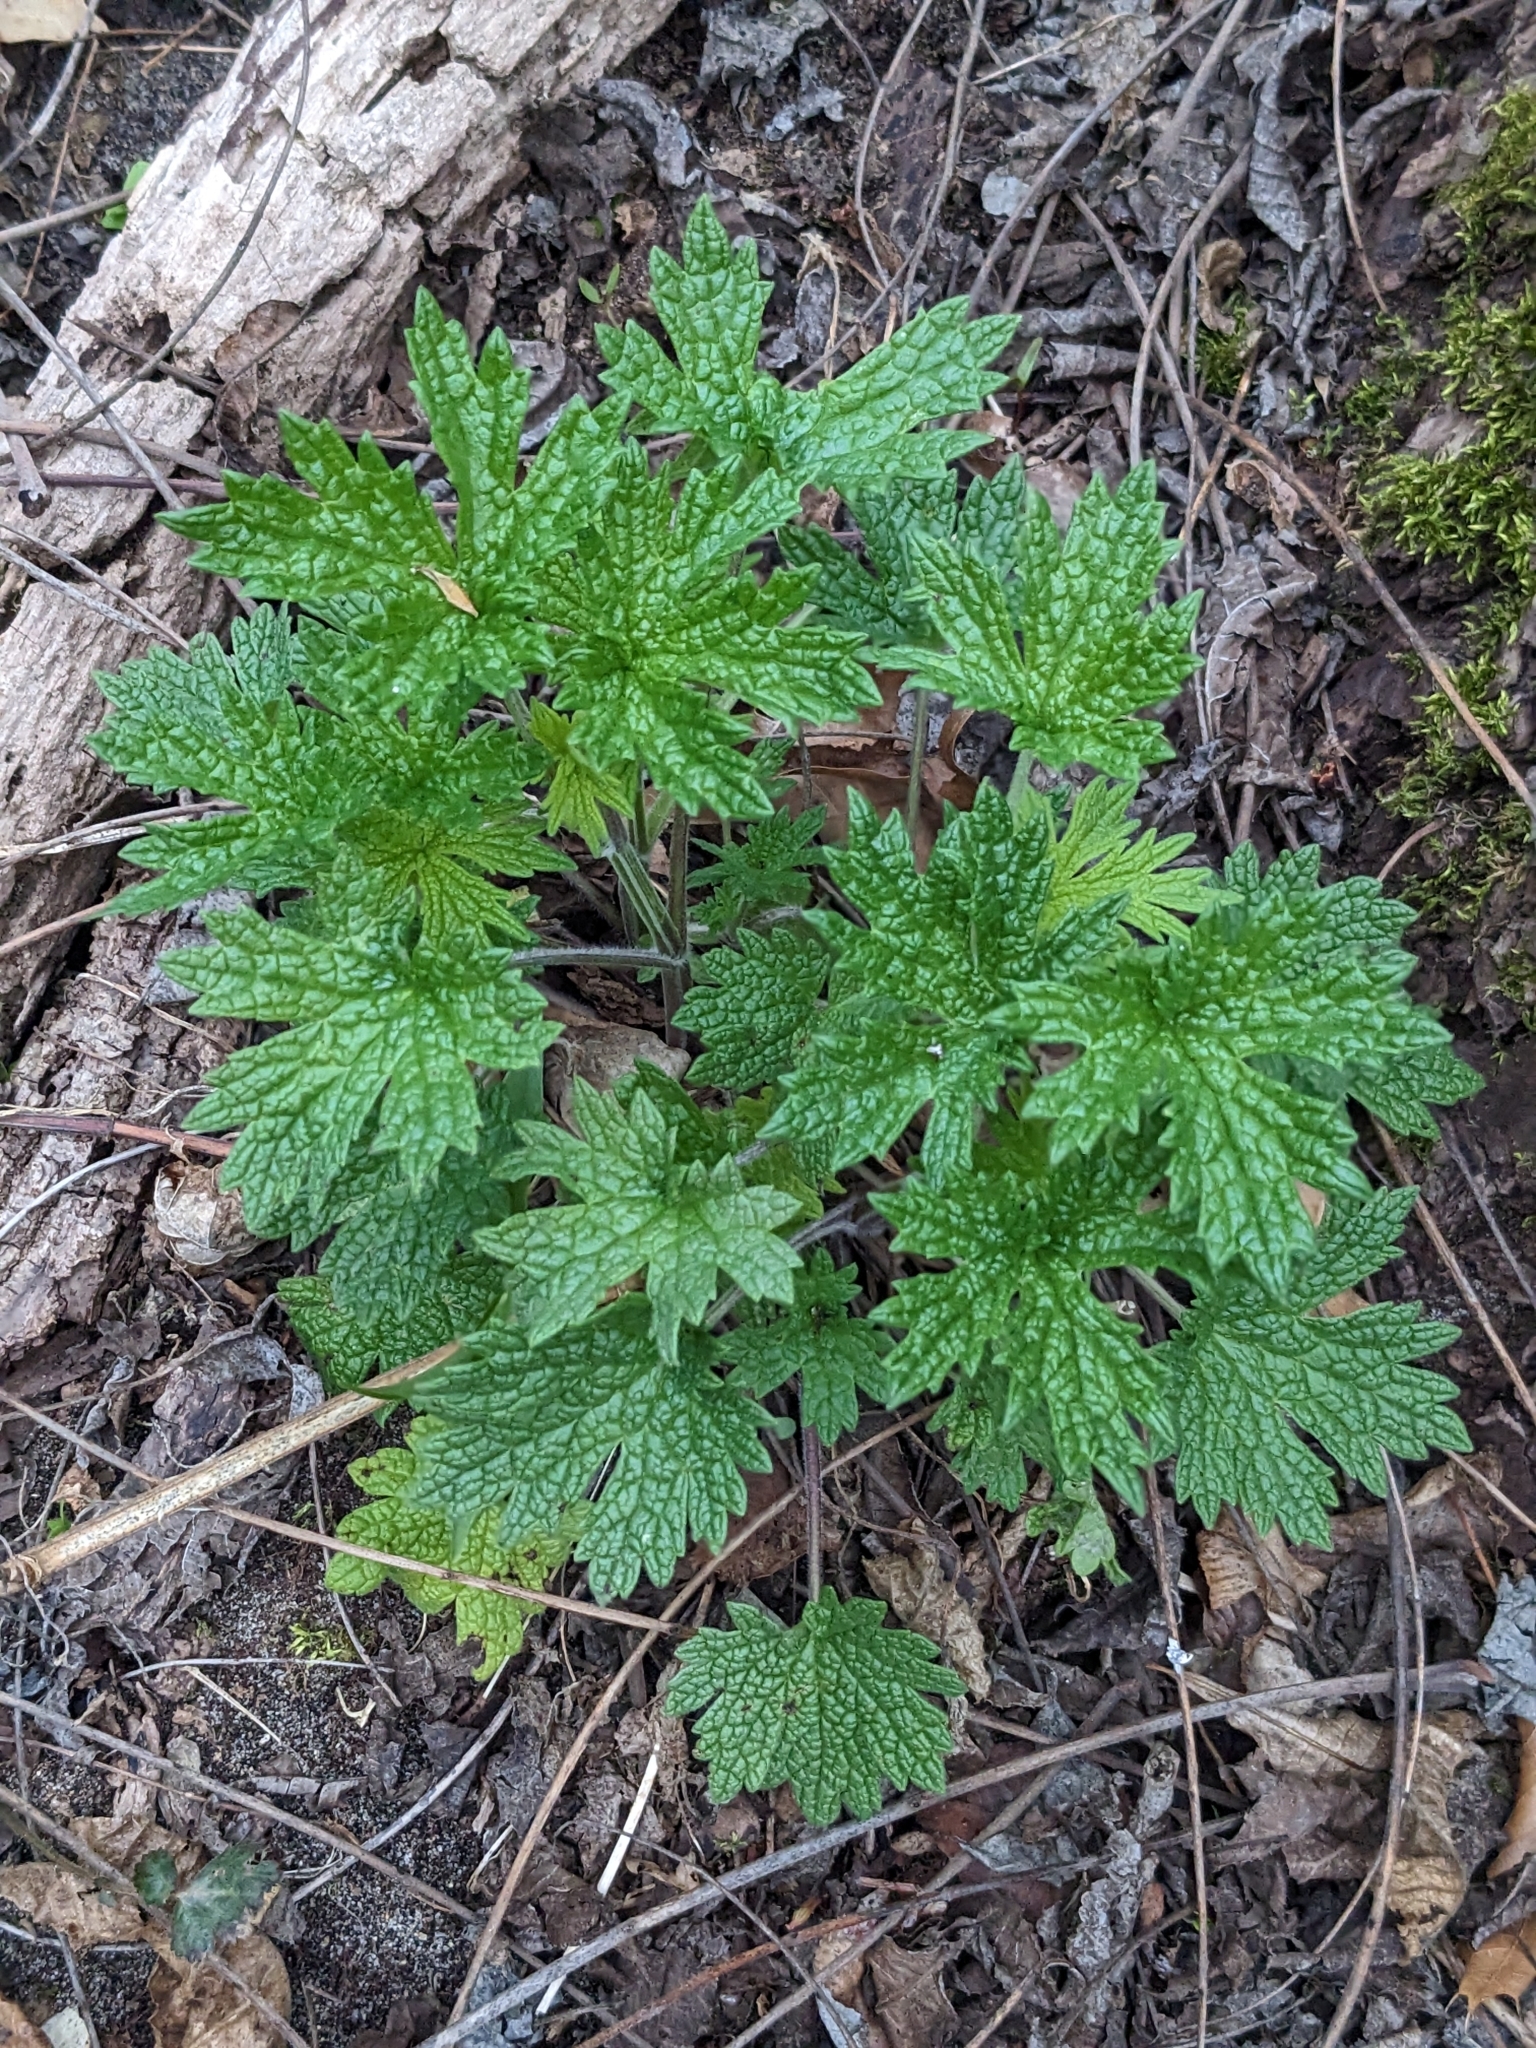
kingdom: Plantae
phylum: Tracheophyta
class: Magnoliopsida
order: Lamiales
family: Lamiaceae
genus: Leonurus
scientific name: Leonurus cardiaca
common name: Motherwort
